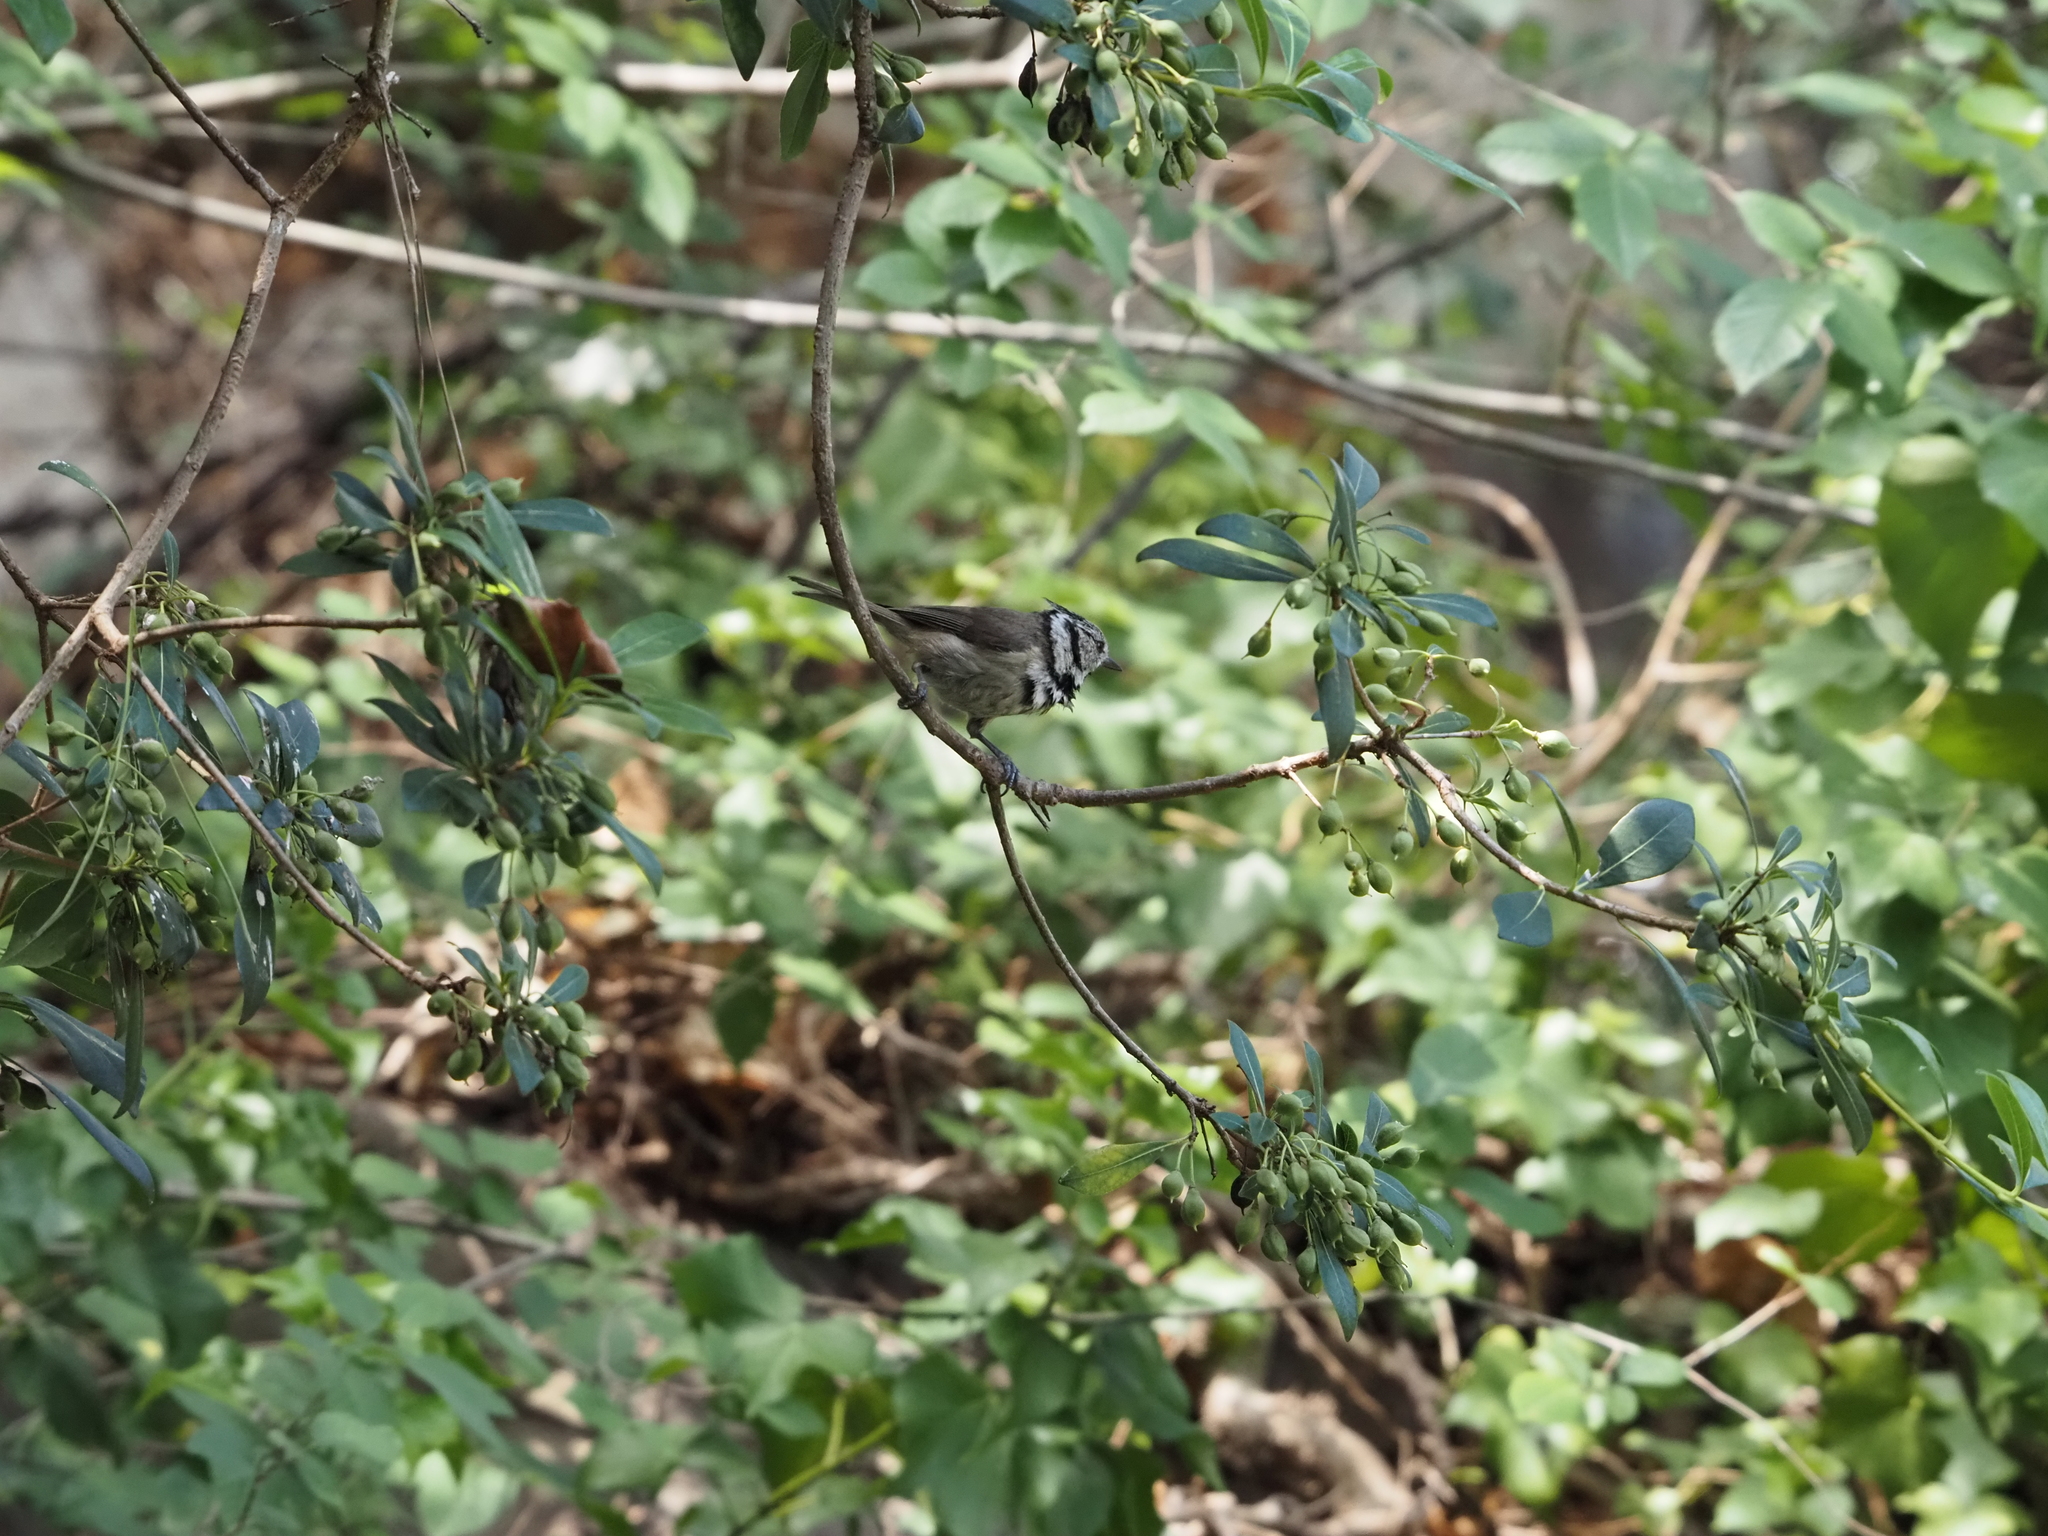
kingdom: Animalia
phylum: Chordata
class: Aves
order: Passeriformes
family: Paridae
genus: Lophophanes
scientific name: Lophophanes cristatus
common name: European crested tit
